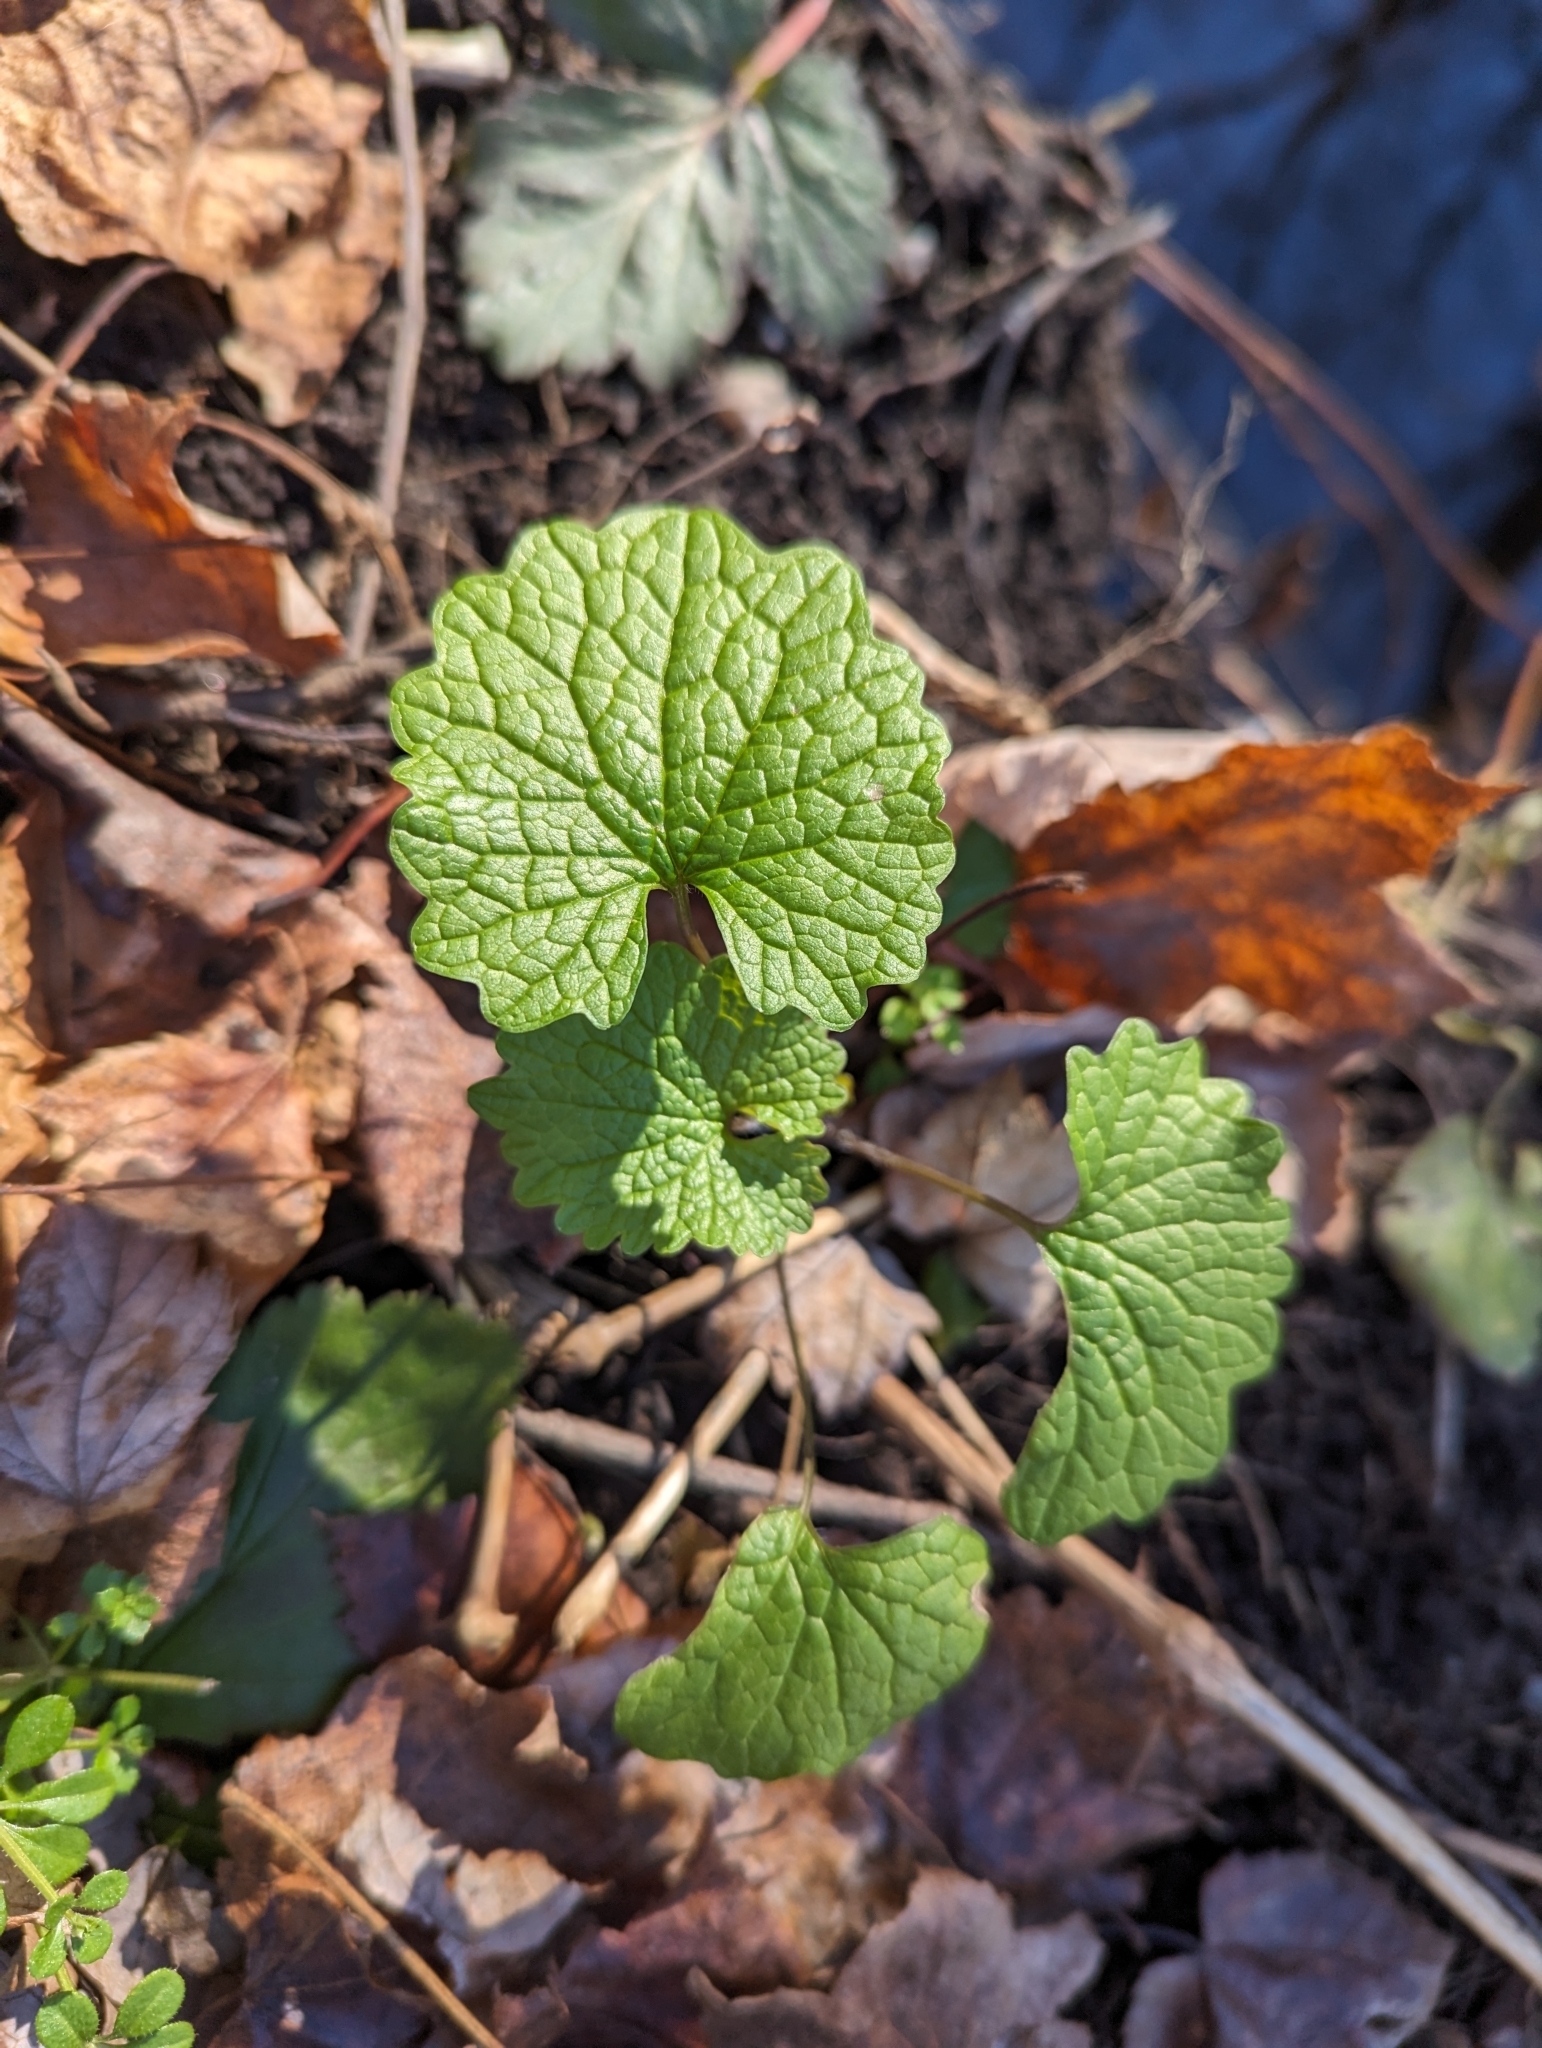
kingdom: Plantae
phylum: Tracheophyta
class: Magnoliopsida
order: Brassicales
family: Brassicaceae
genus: Alliaria
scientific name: Alliaria petiolata
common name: Garlic mustard
